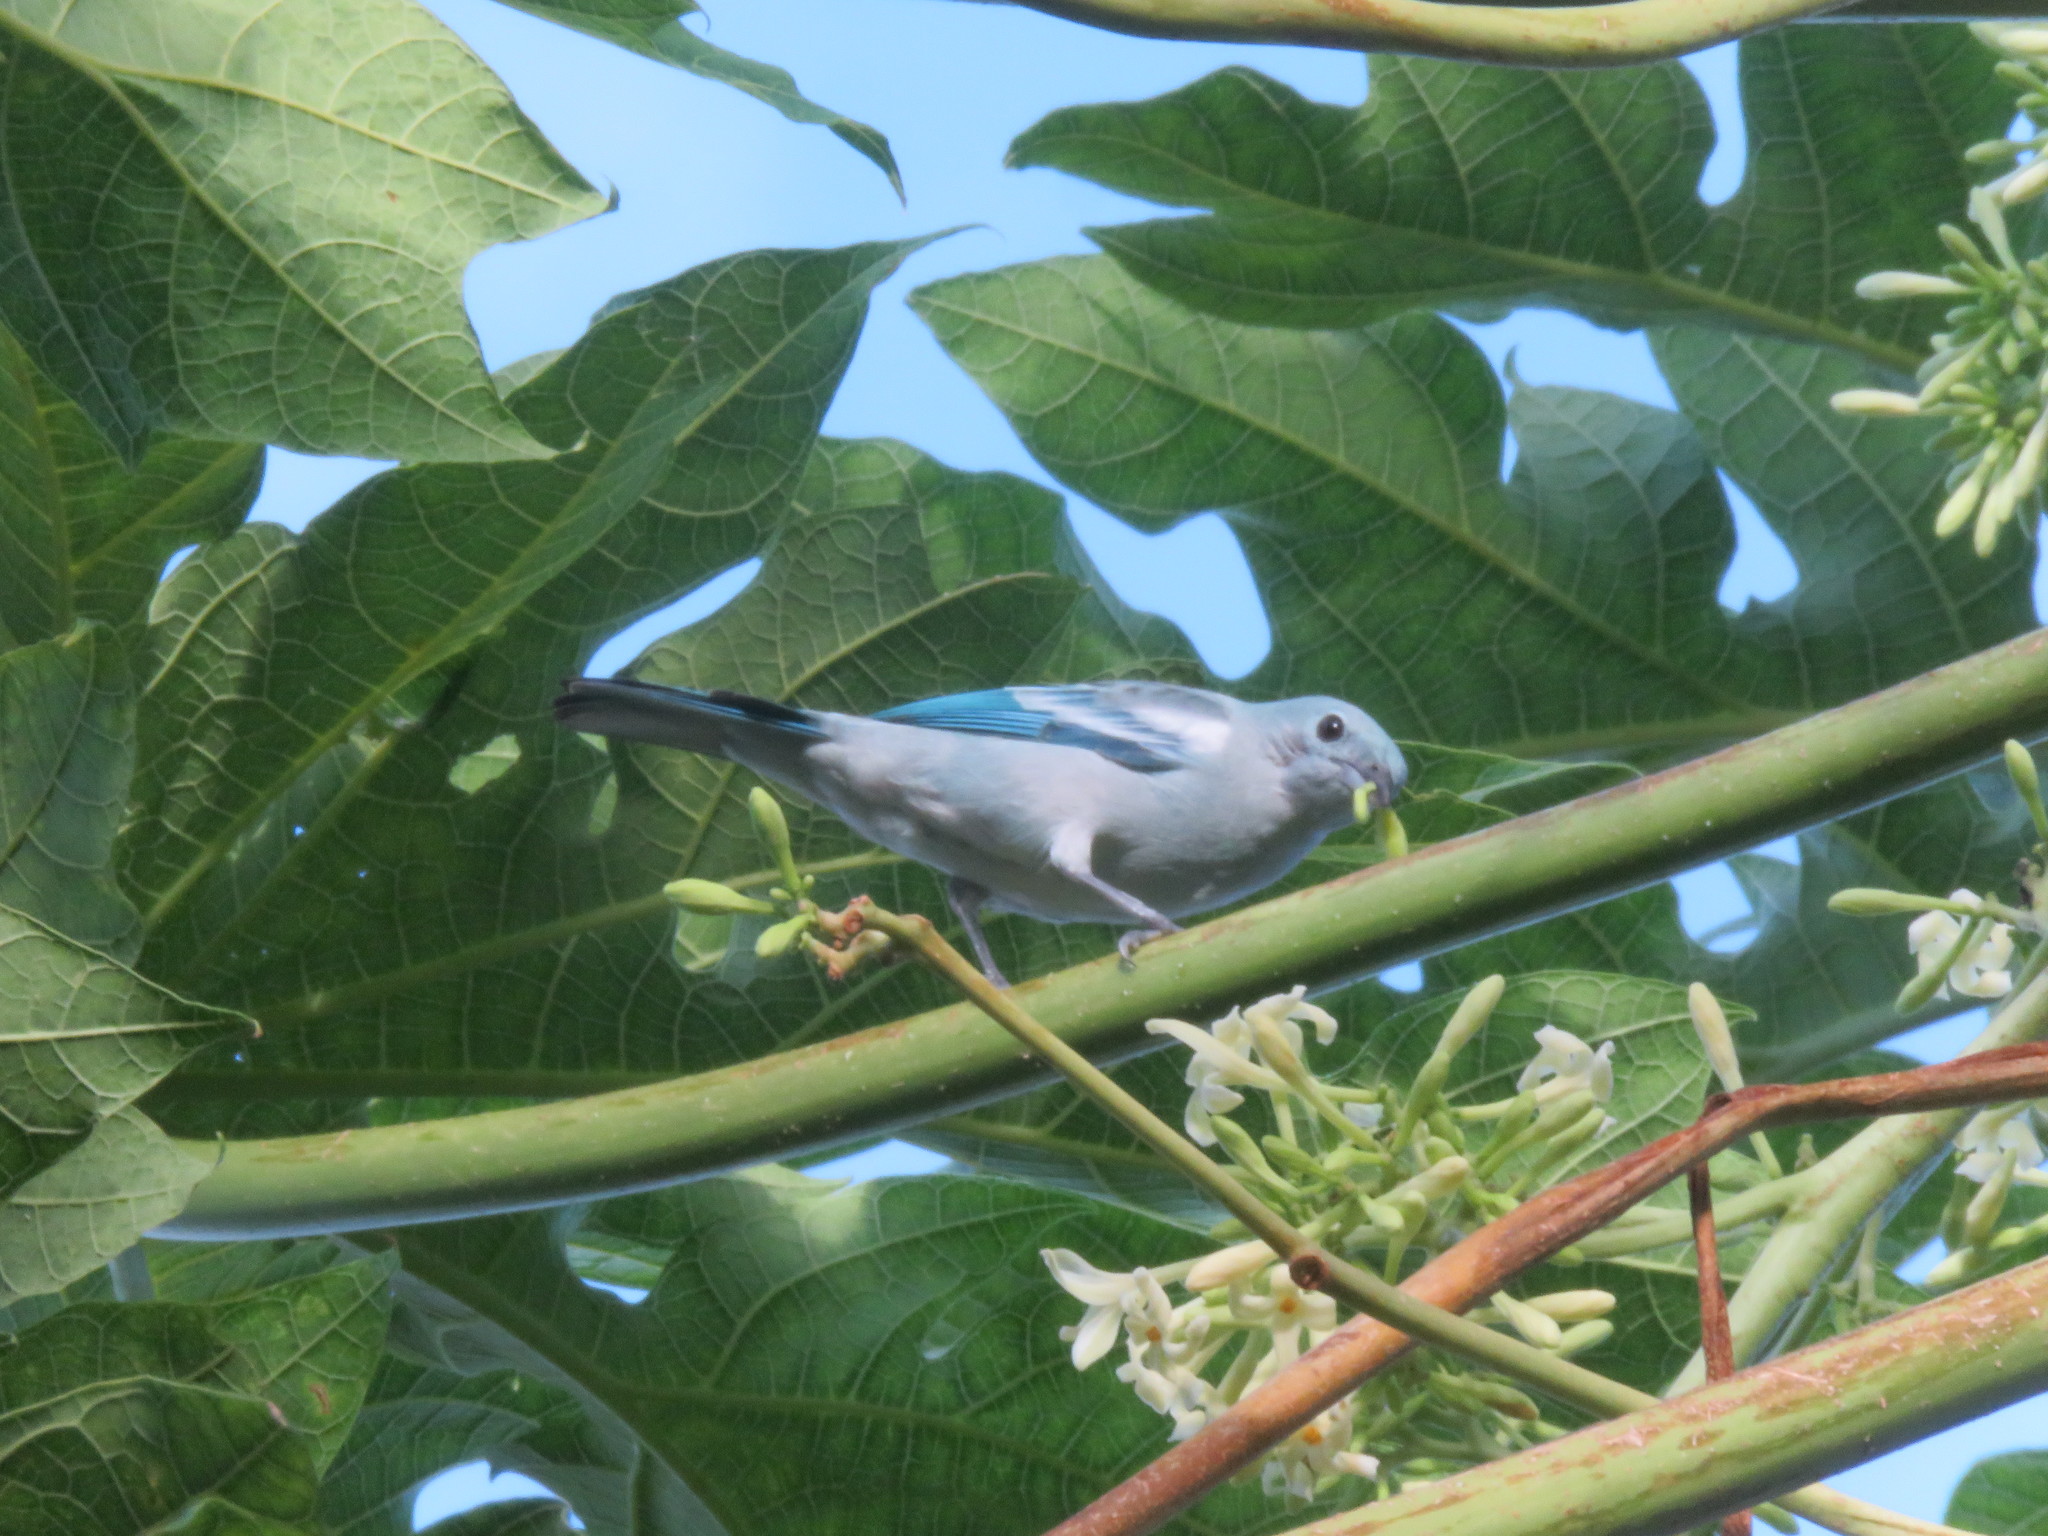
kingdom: Animalia
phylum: Chordata
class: Aves
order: Passeriformes
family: Thraupidae
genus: Thraupis
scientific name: Thraupis episcopus
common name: Blue-grey tanager
